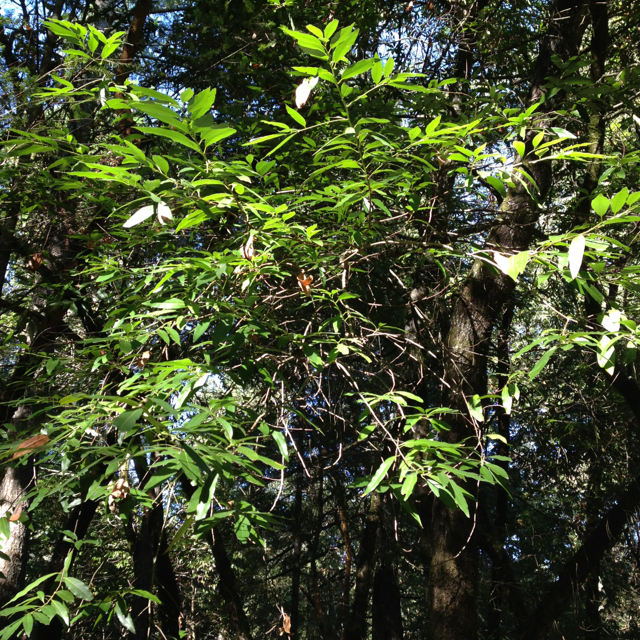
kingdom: Plantae
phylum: Tracheophyta
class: Magnoliopsida
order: Laurales
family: Lauraceae
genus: Umbellularia
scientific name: Umbellularia californica
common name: California bay
